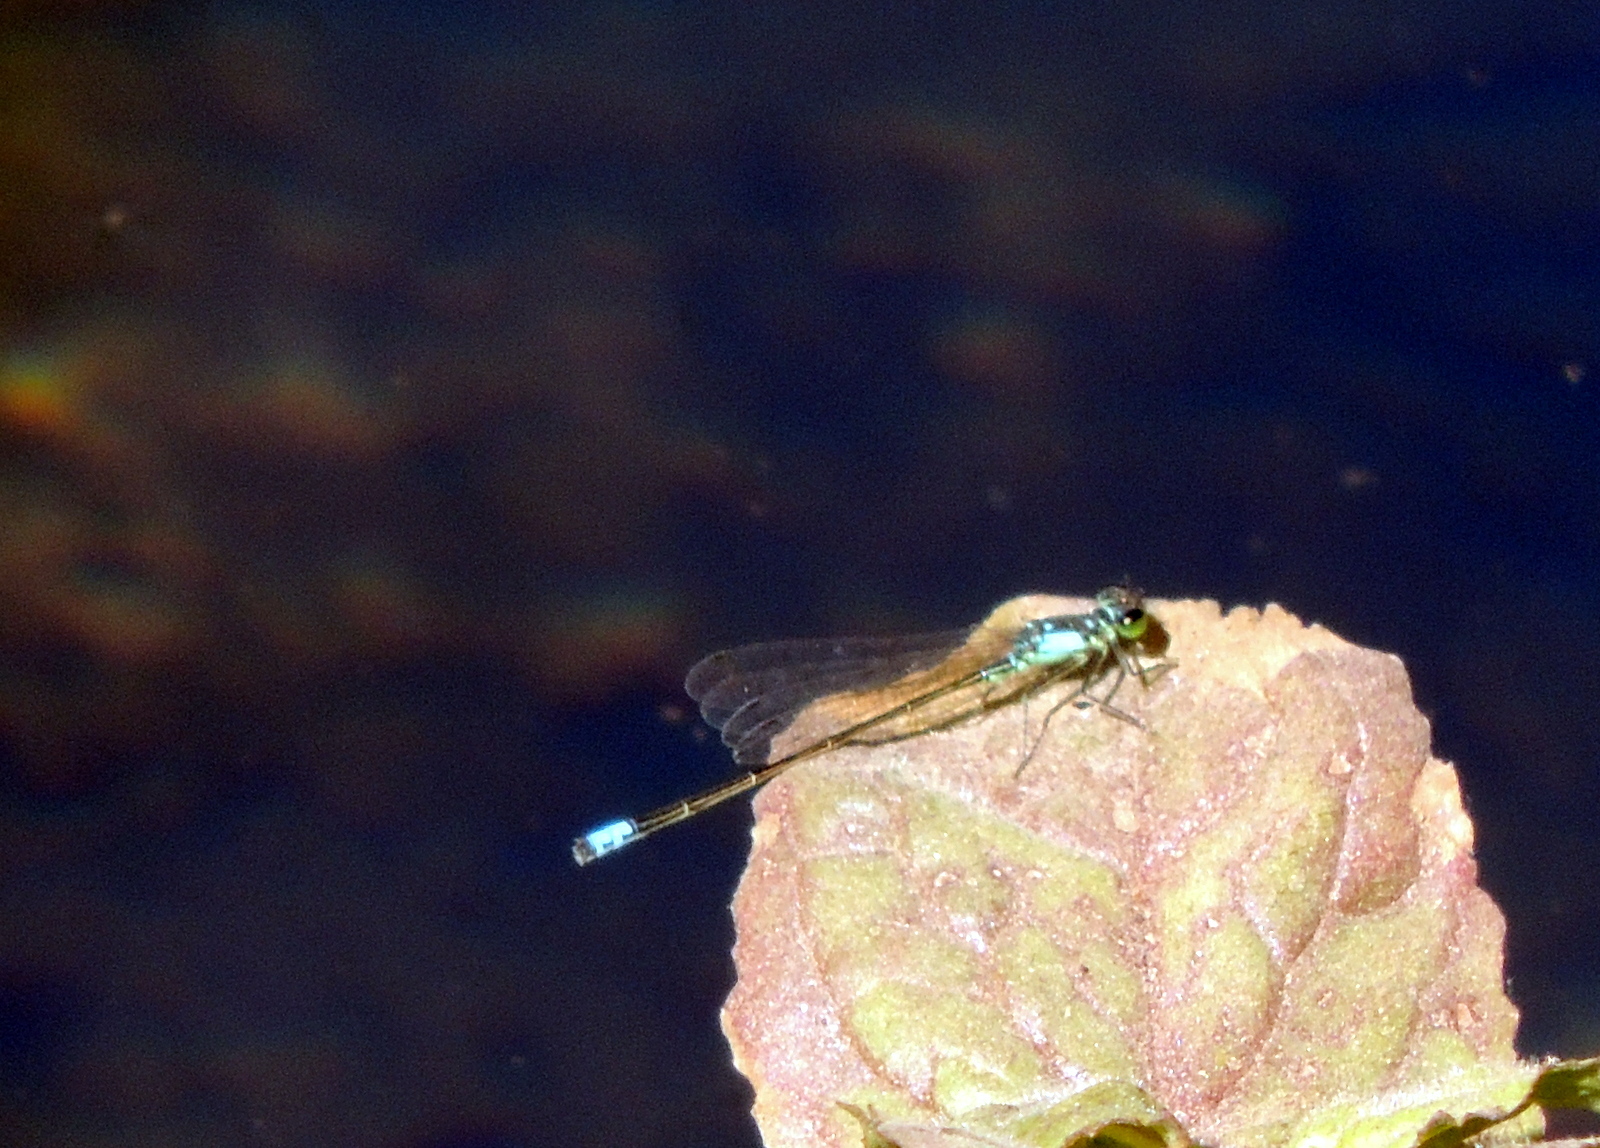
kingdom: Animalia
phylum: Arthropoda
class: Insecta
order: Odonata
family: Coenagrionidae
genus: Ischnura
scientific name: Ischnura cervula
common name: Pacific forktail
